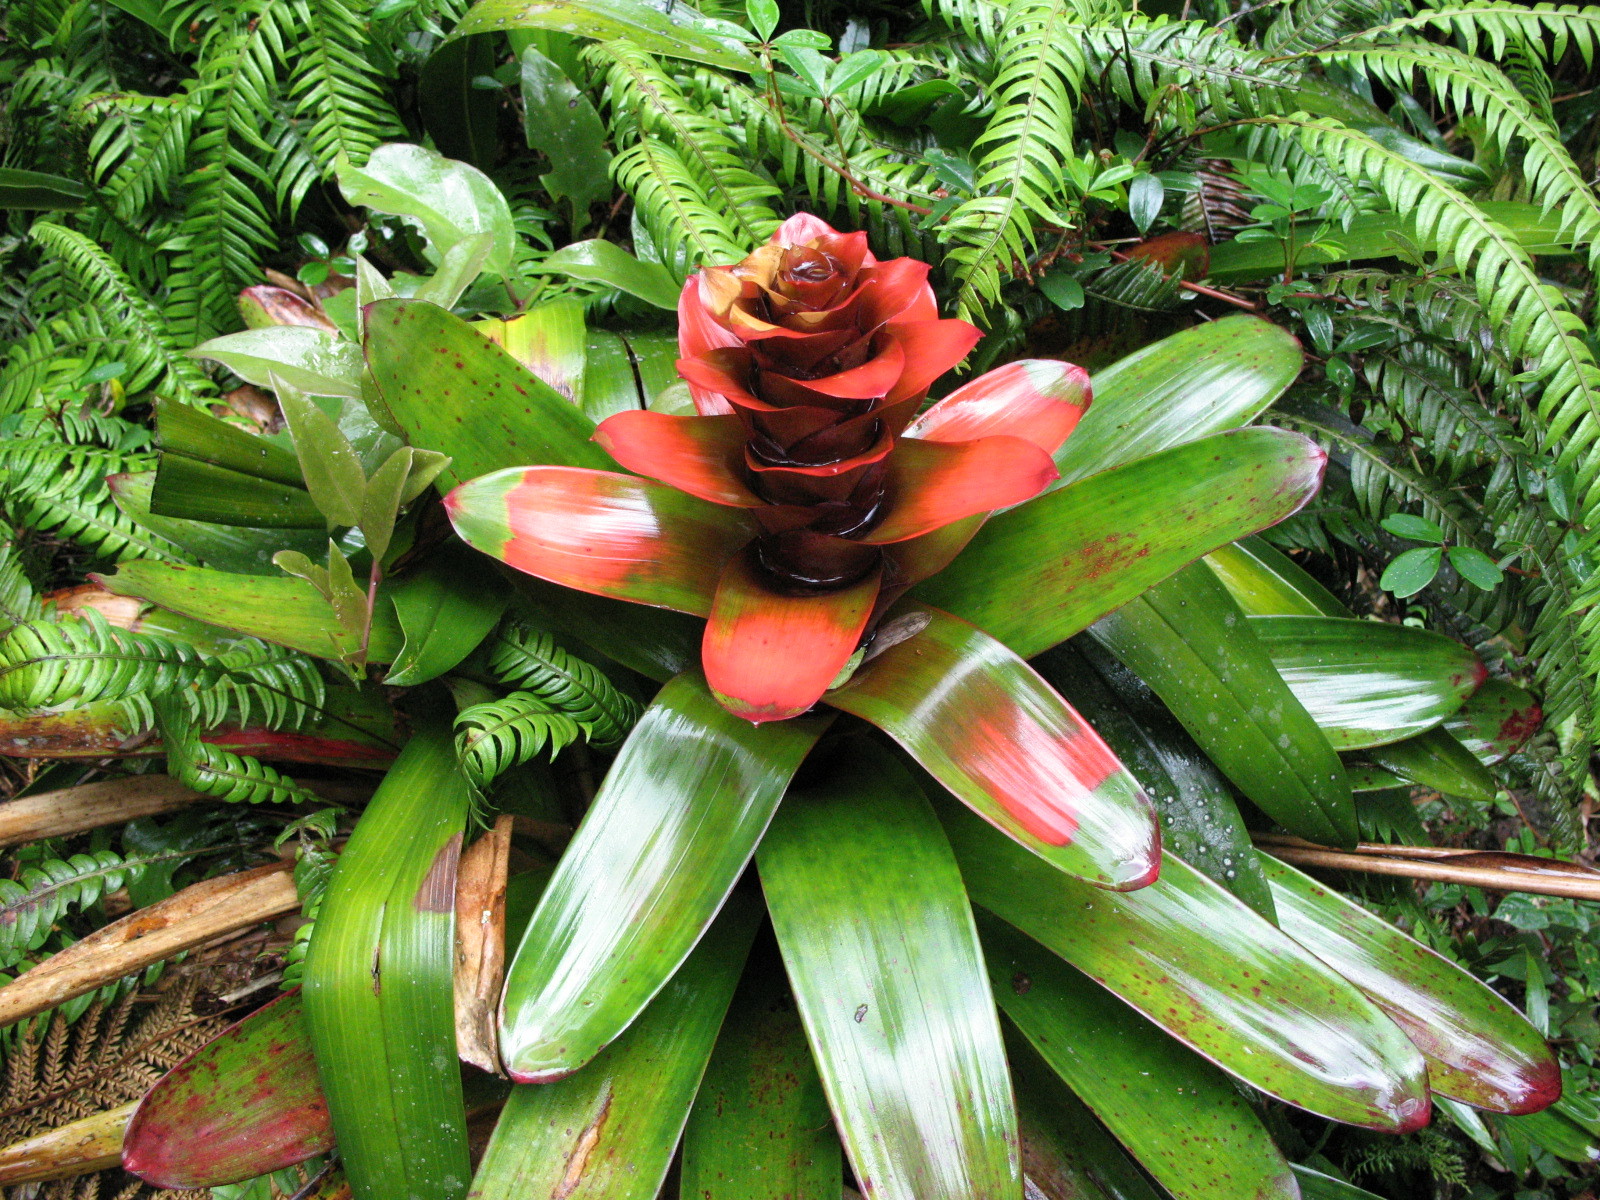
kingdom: Plantae
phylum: Tracheophyta
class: Liliopsida
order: Poales
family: Bromeliaceae
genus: Guzmania
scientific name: Guzmania gloriosa
